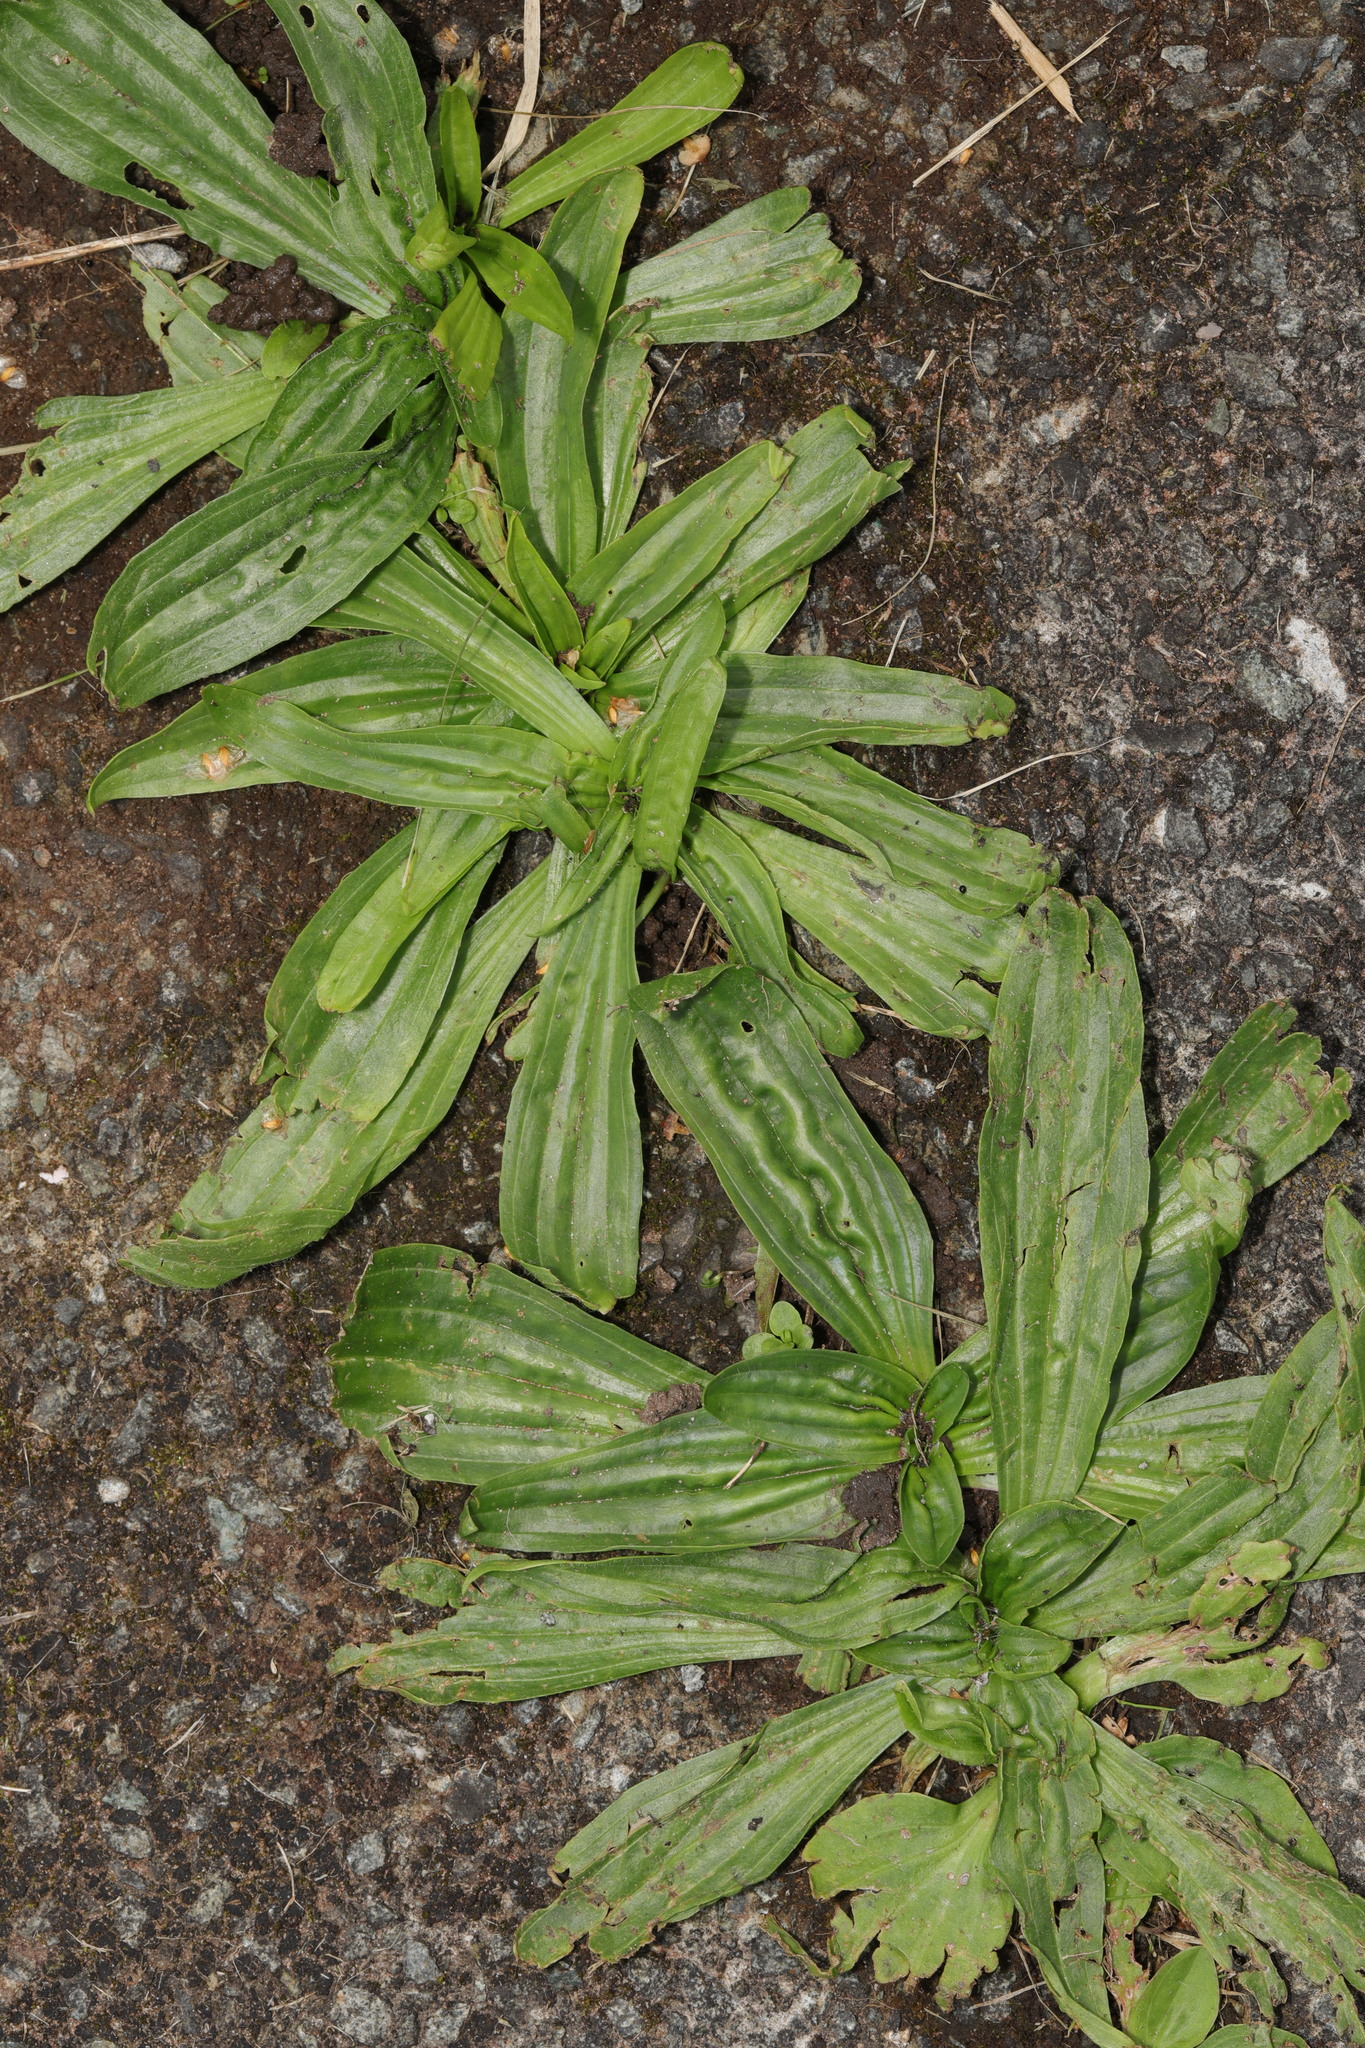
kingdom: Plantae
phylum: Tracheophyta
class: Magnoliopsida
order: Lamiales
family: Plantaginaceae
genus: Plantago
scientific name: Plantago lanceolata
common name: Ribwort plantain
